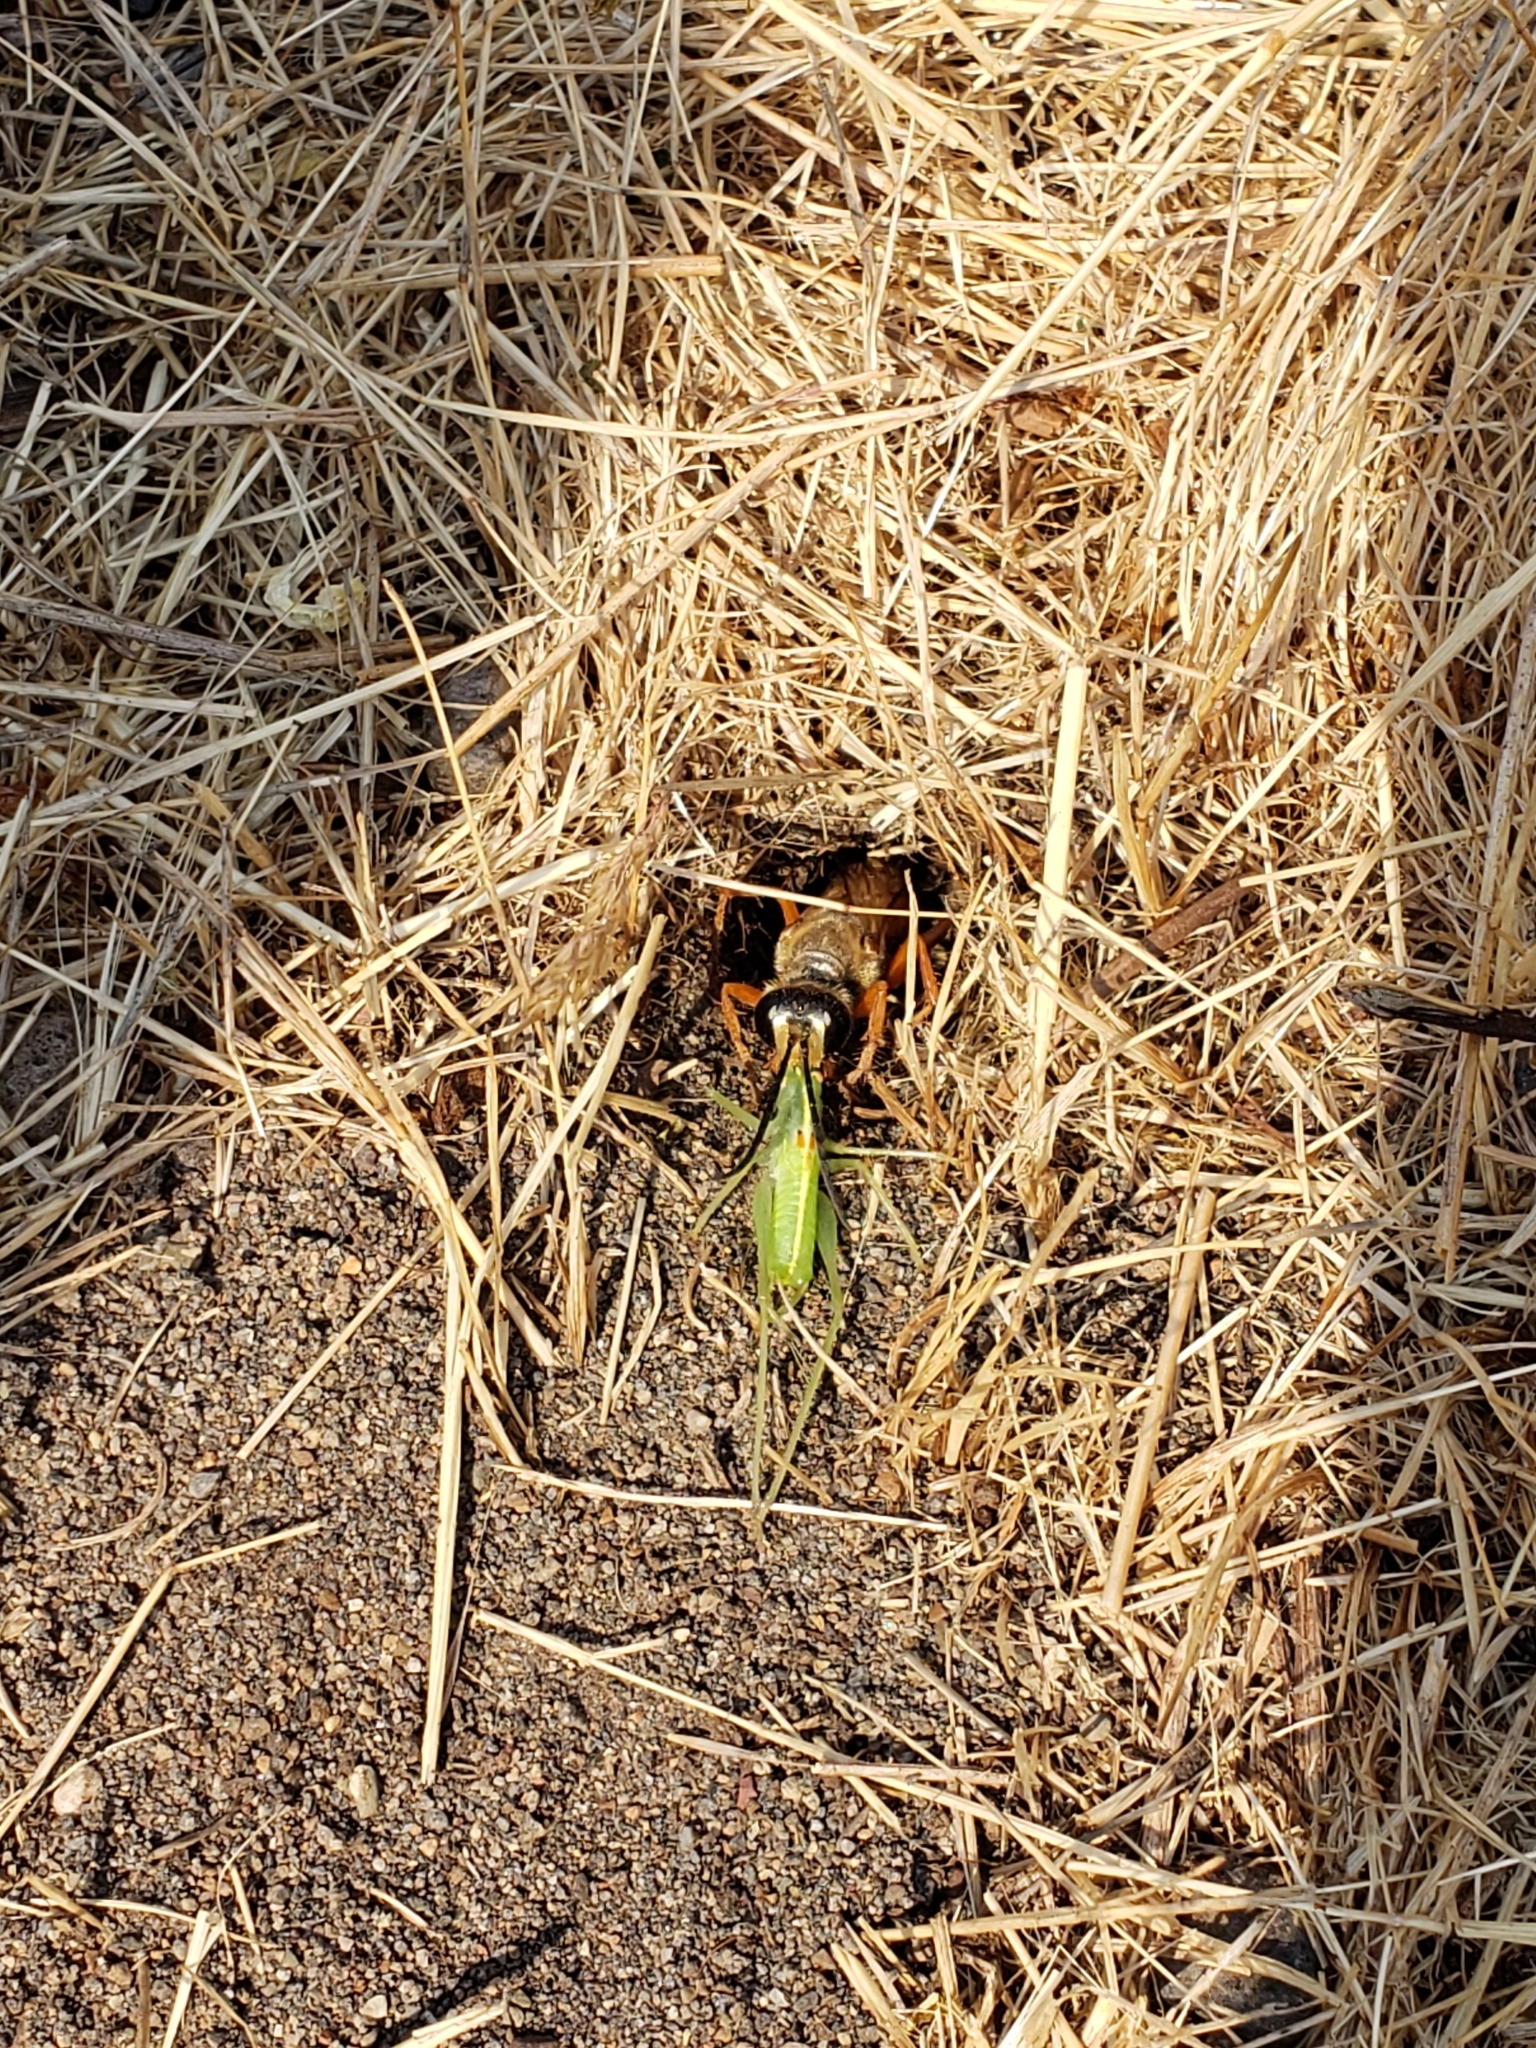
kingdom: Animalia
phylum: Arthropoda
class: Insecta
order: Hymenoptera
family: Sphecidae
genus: Sphex
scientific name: Sphex ichneumoneus
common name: Great golden digger wasp
